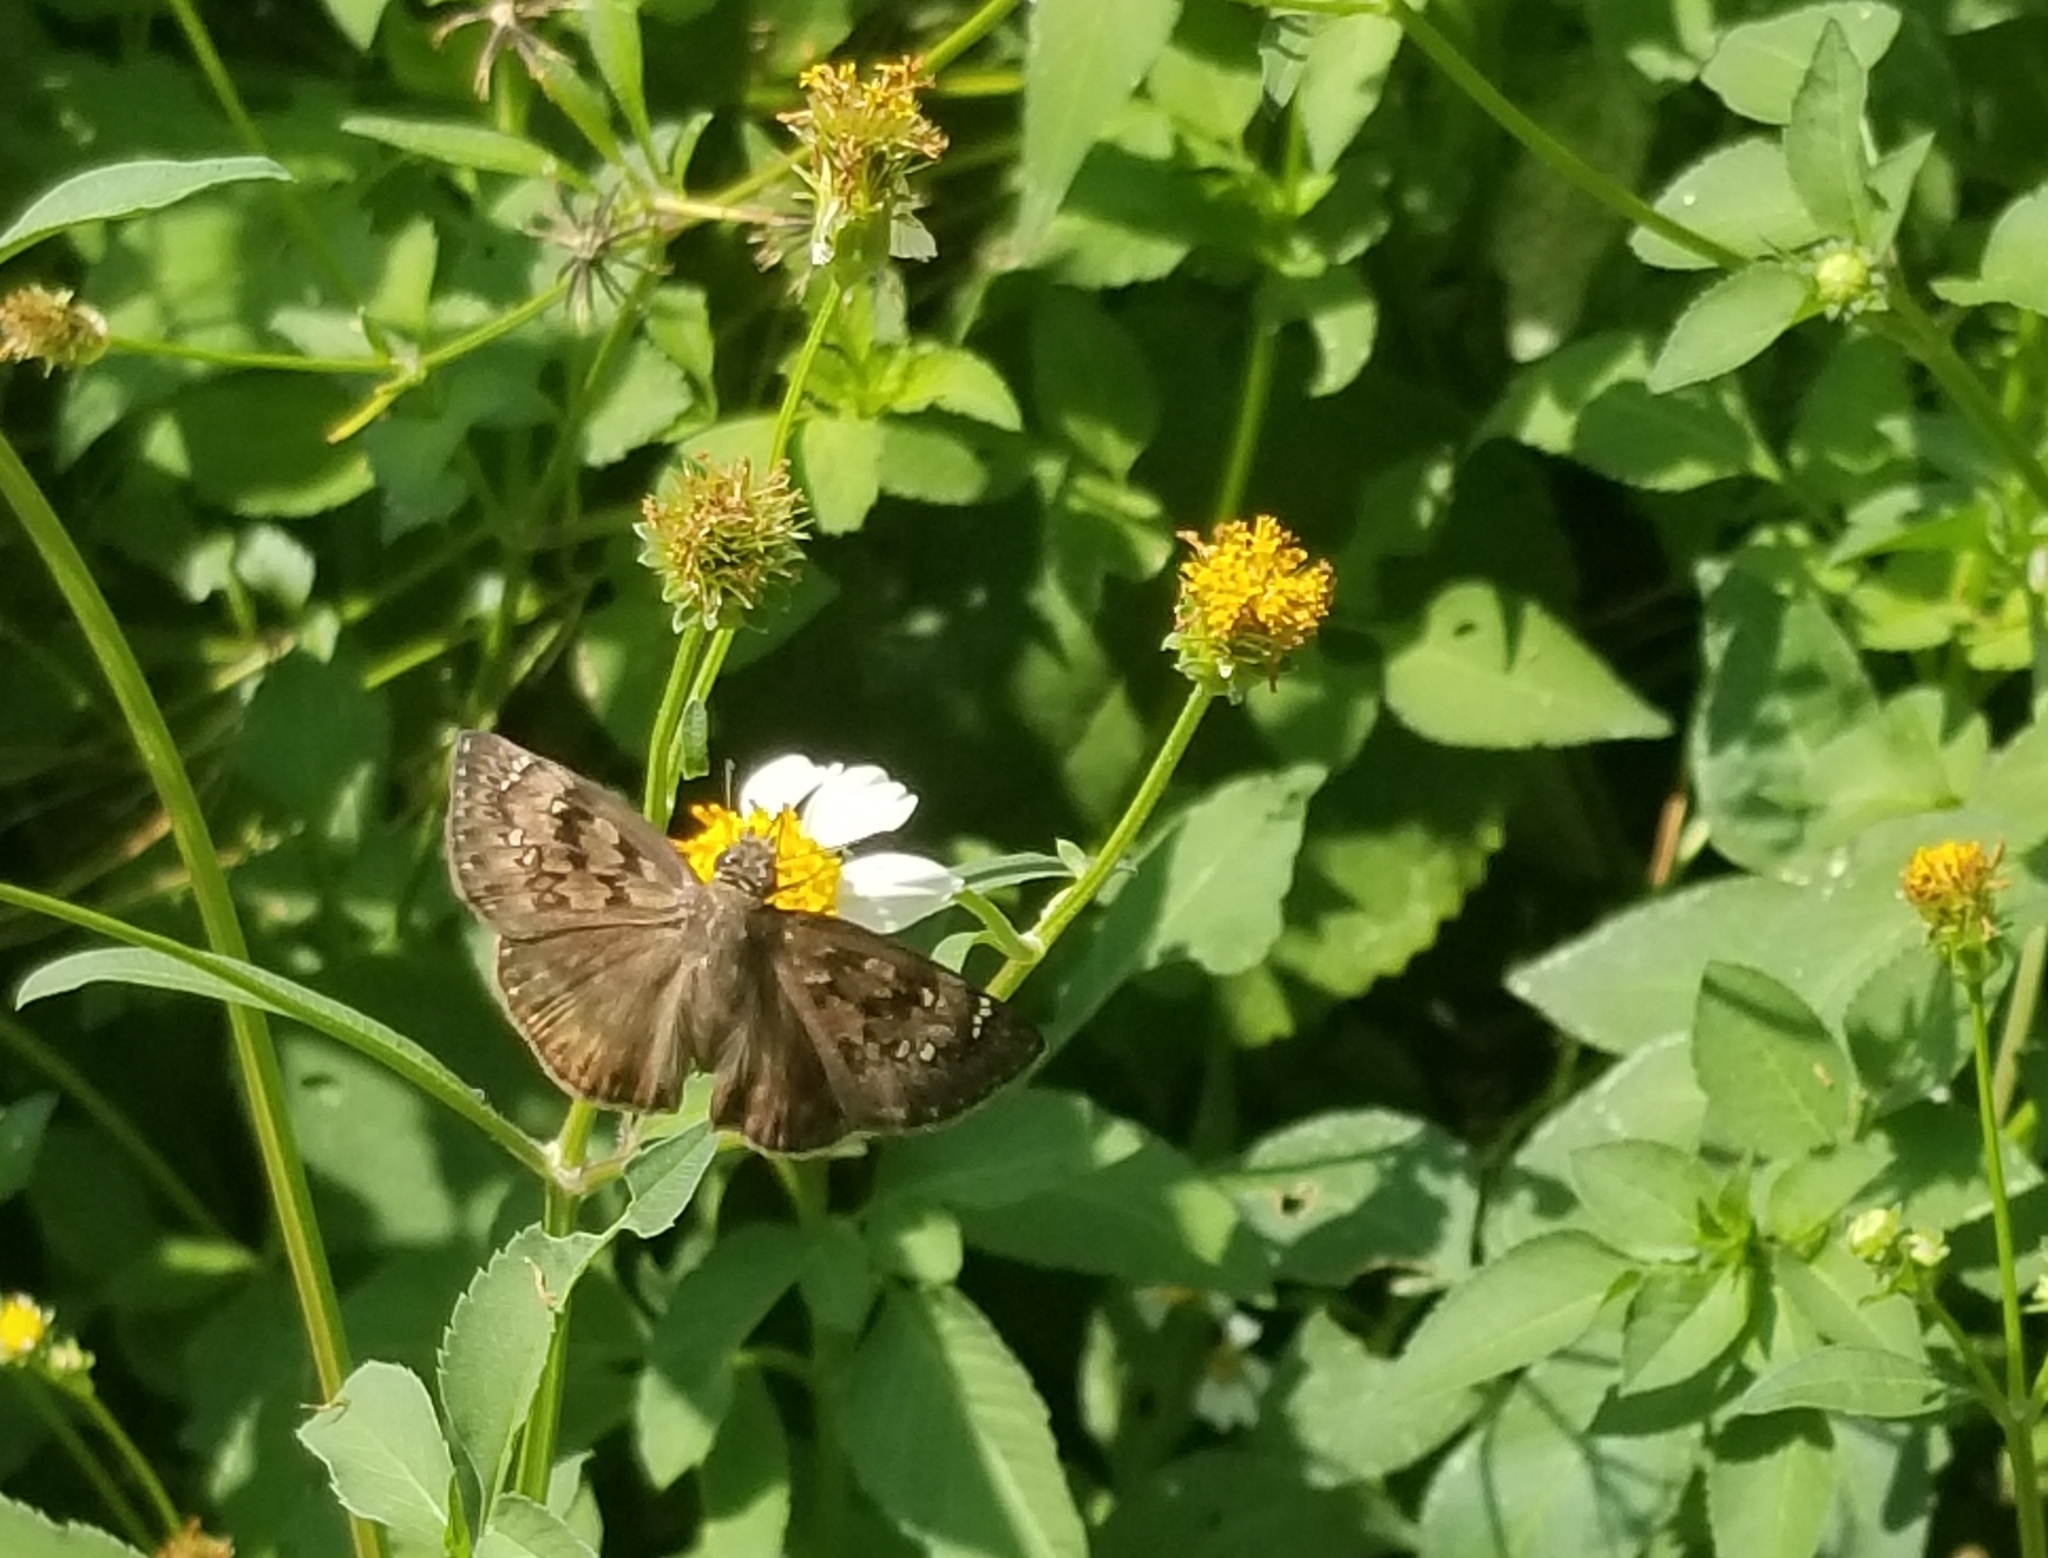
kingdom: Animalia
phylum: Arthropoda
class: Insecta
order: Lepidoptera
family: Hesperiidae
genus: Erynnis
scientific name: Erynnis horatius
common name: Horace's duskywing
